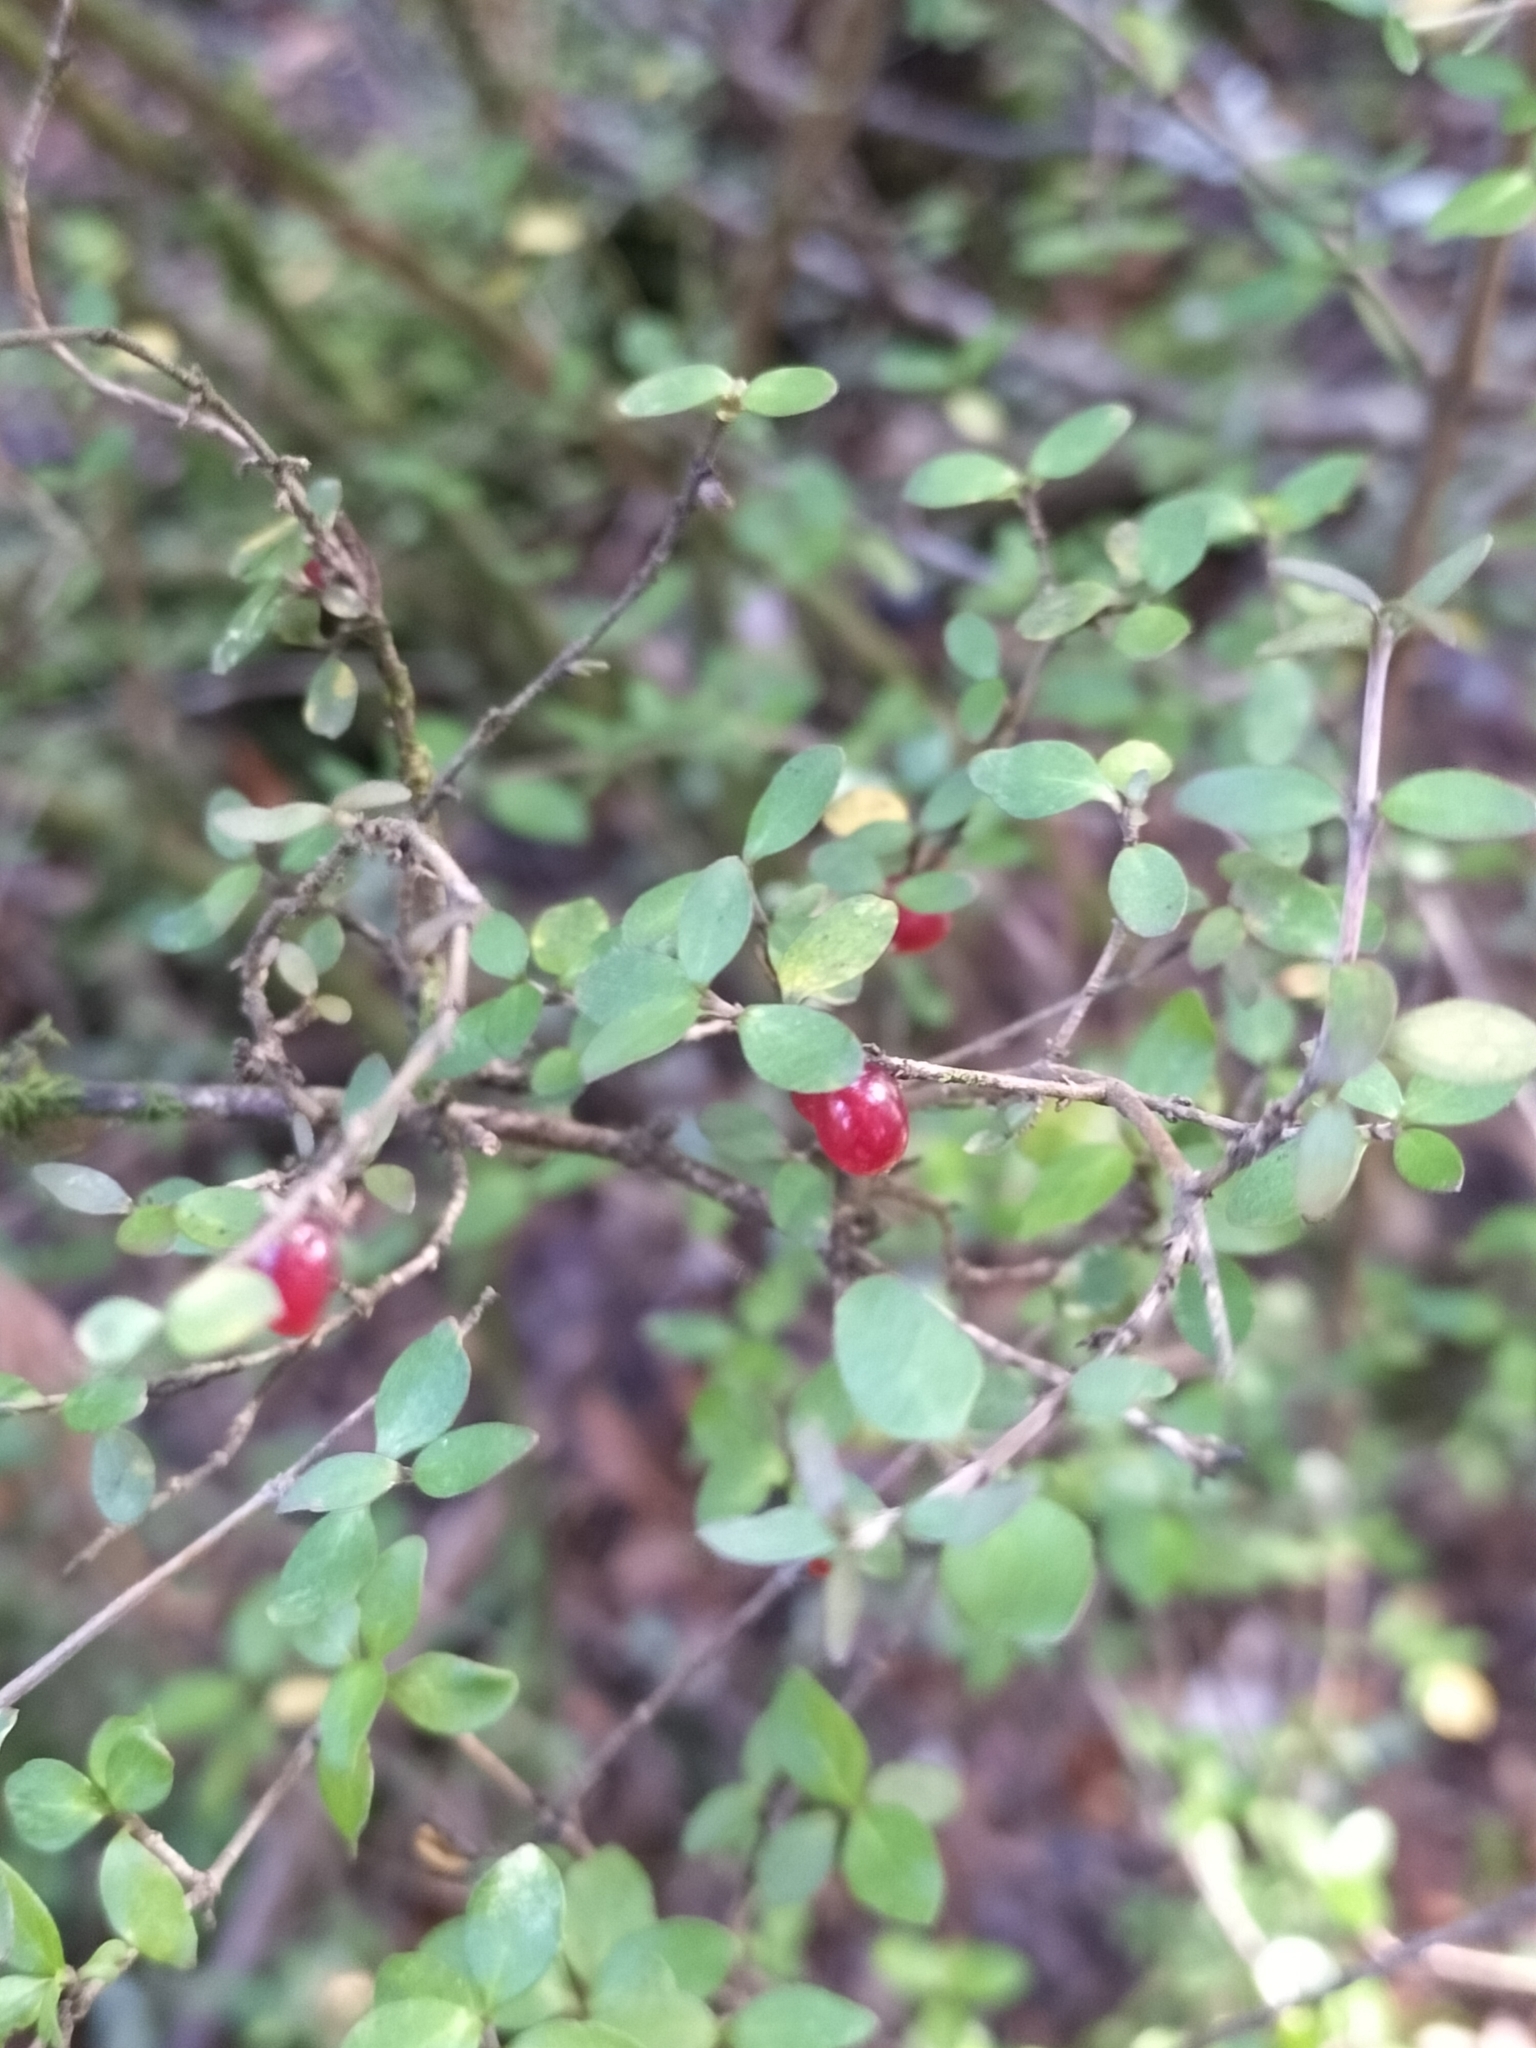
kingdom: Plantae
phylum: Tracheophyta
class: Magnoliopsida
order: Gentianales
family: Rubiaceae
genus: Coprosma
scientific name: Coprosma rhamnoides
